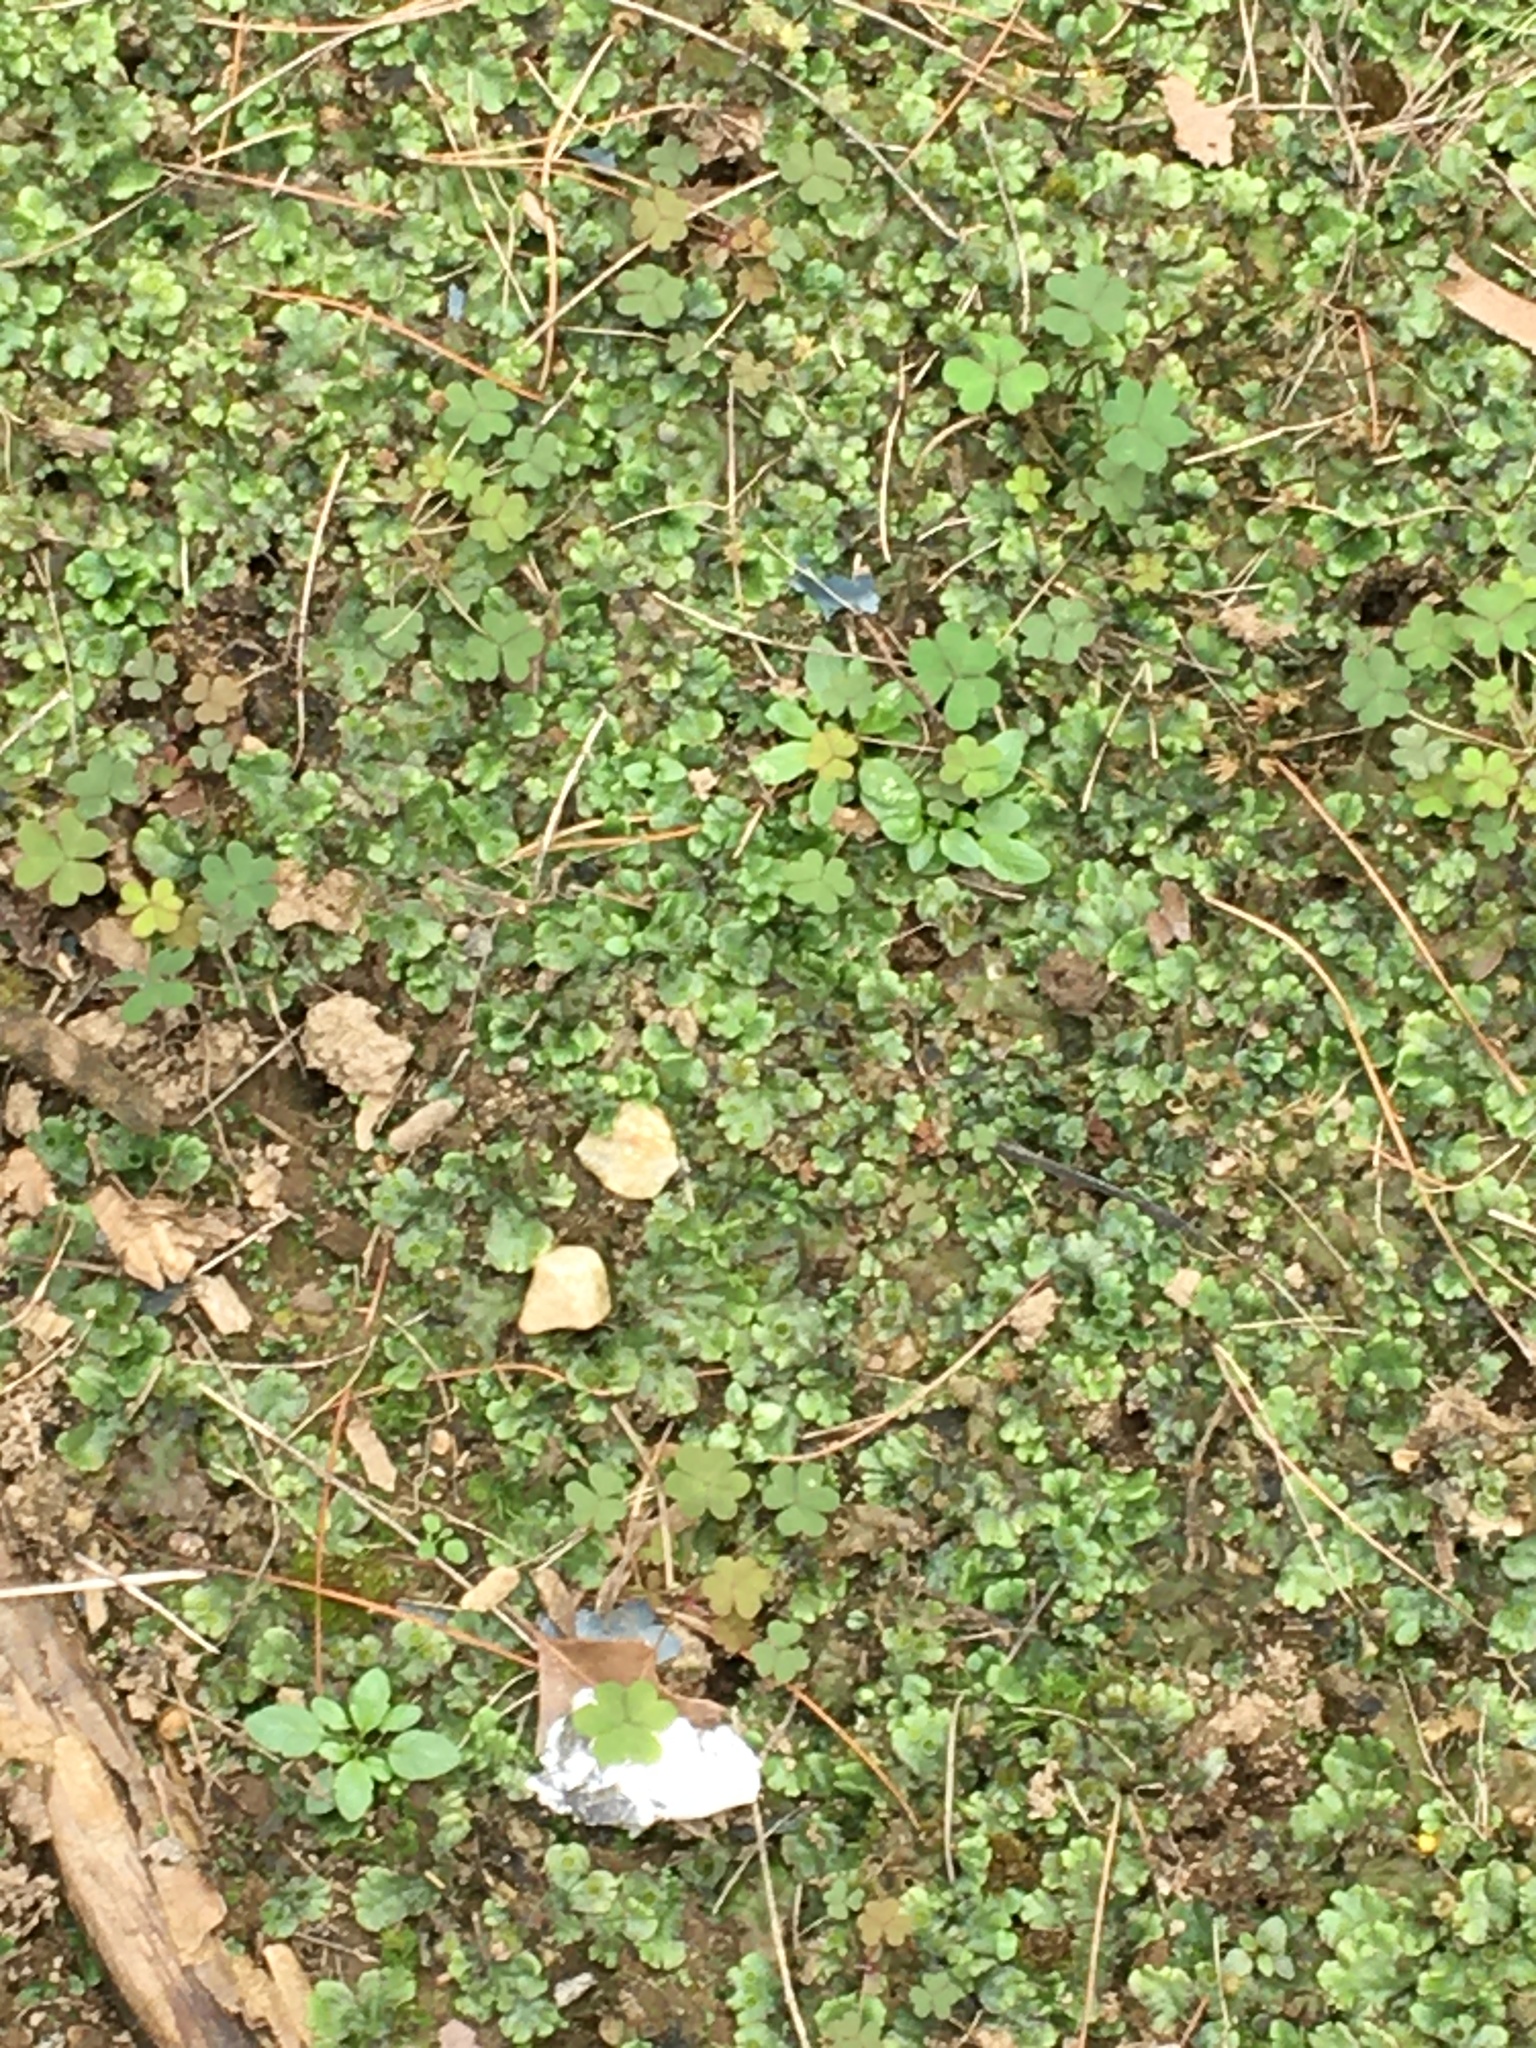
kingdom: Plantae
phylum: Marchantiophyta
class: Marchantiopsida
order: Marchantiales
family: Marchantiaceae
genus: Marchantia
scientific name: Marchantia polymorpha
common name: Common liverwort
